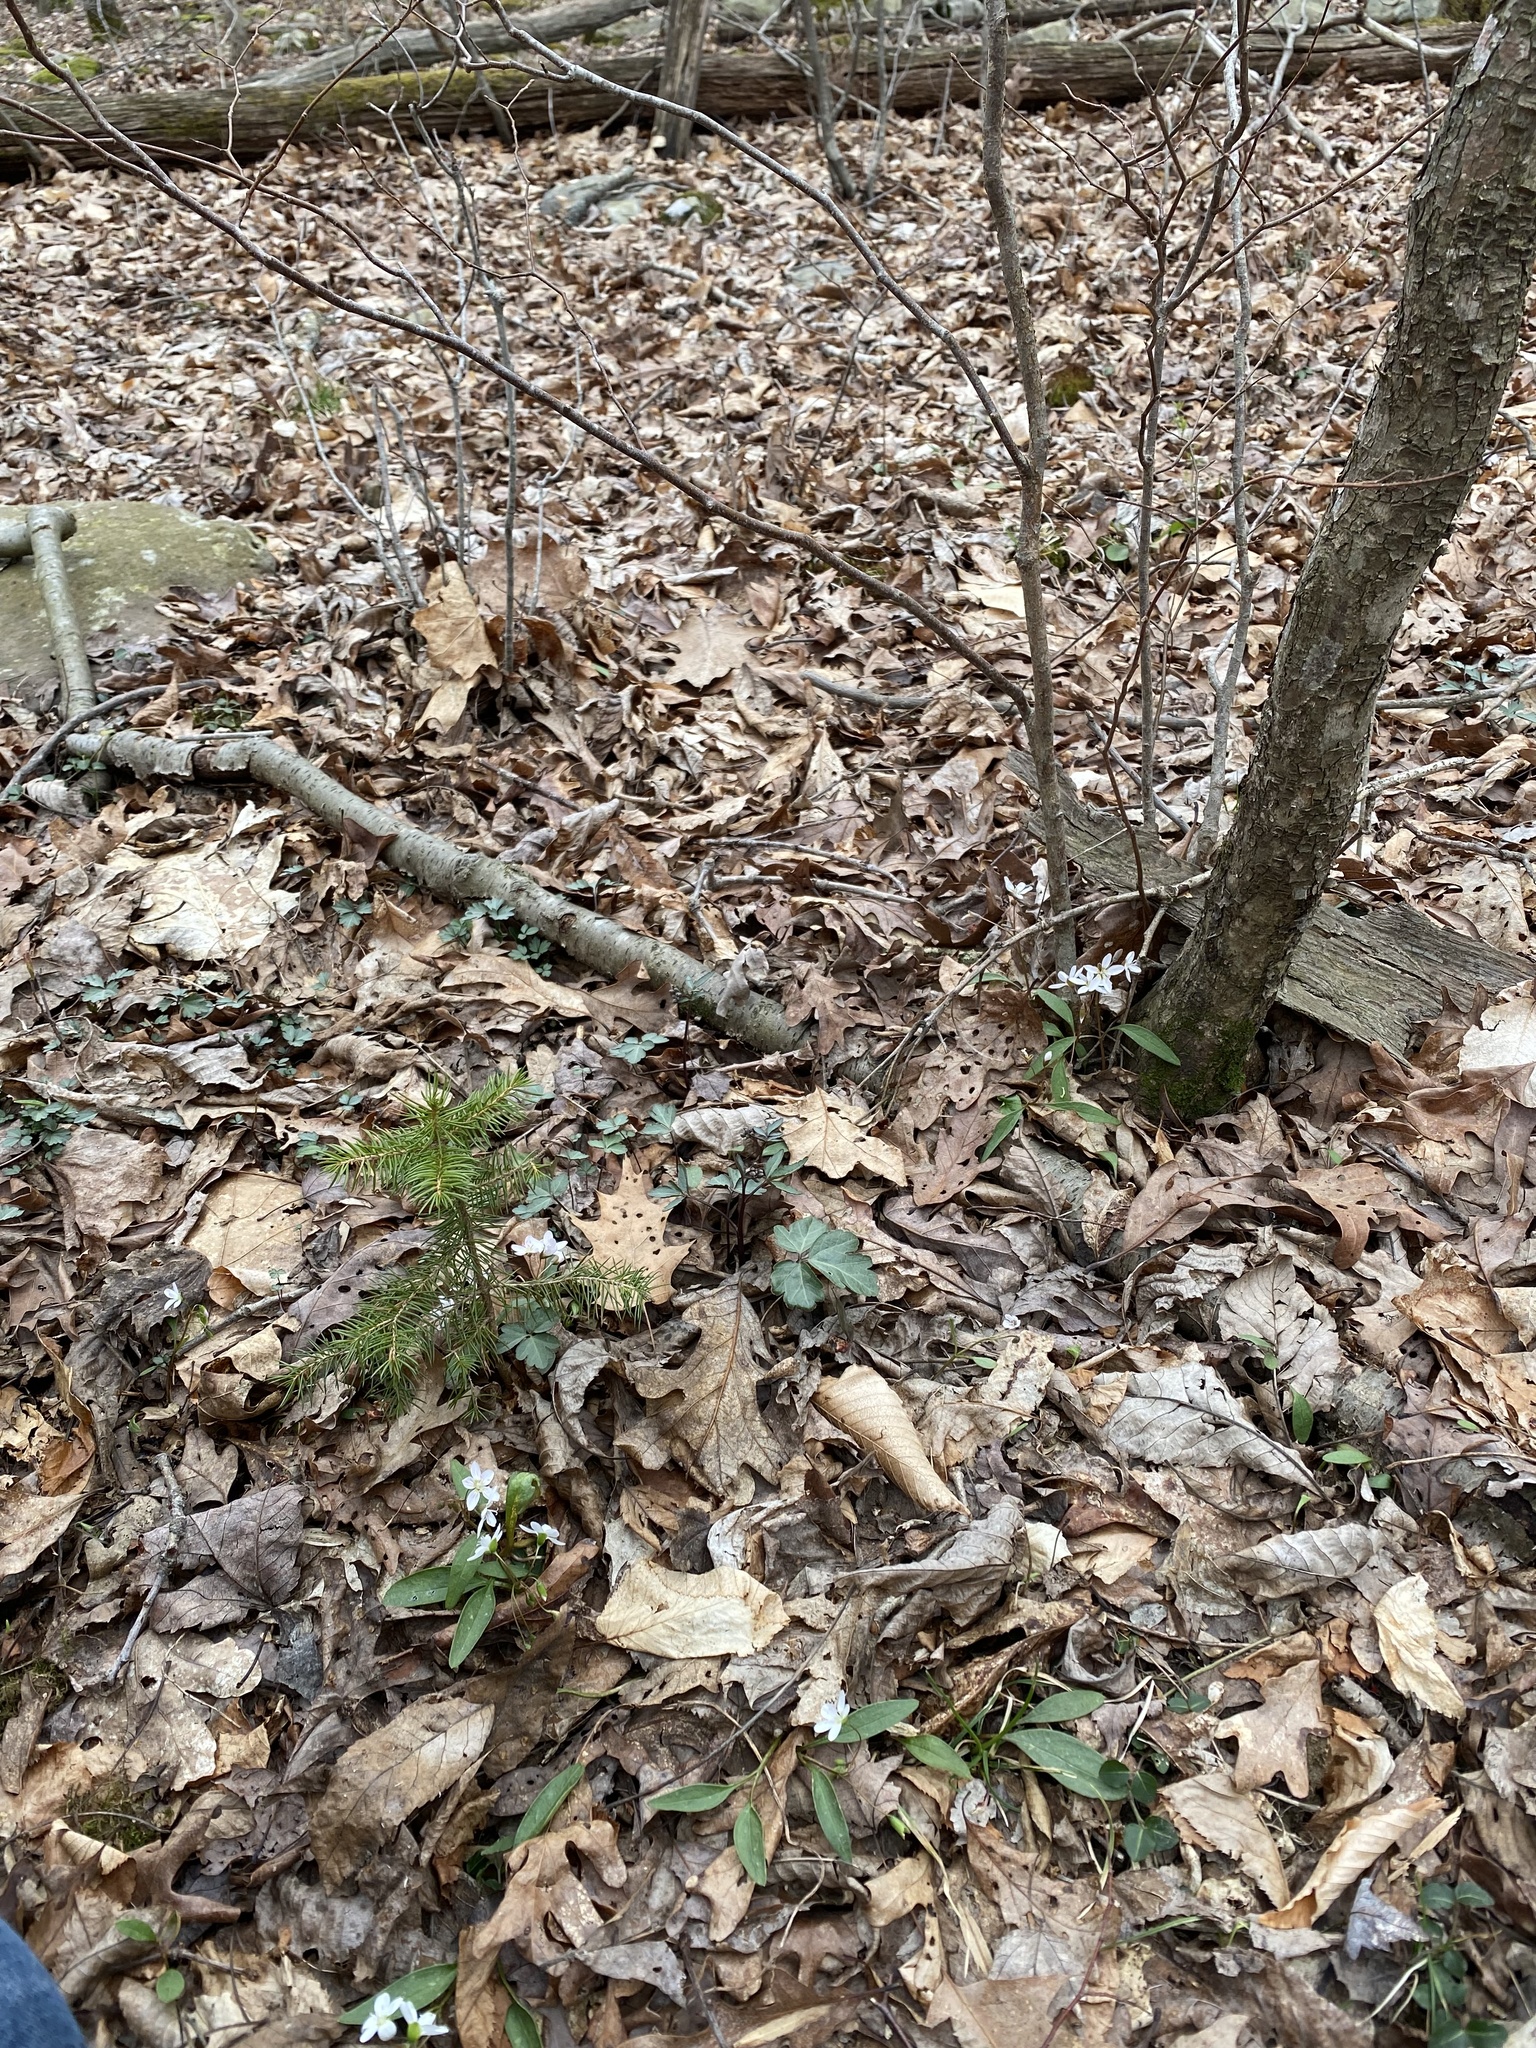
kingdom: Plantae
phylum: Tracheophyta
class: Magnoliopsida
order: Caryophyllales
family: Montiaceae
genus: Claytonia
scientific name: Claytonia caroliniana
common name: Carolina spring beauty
